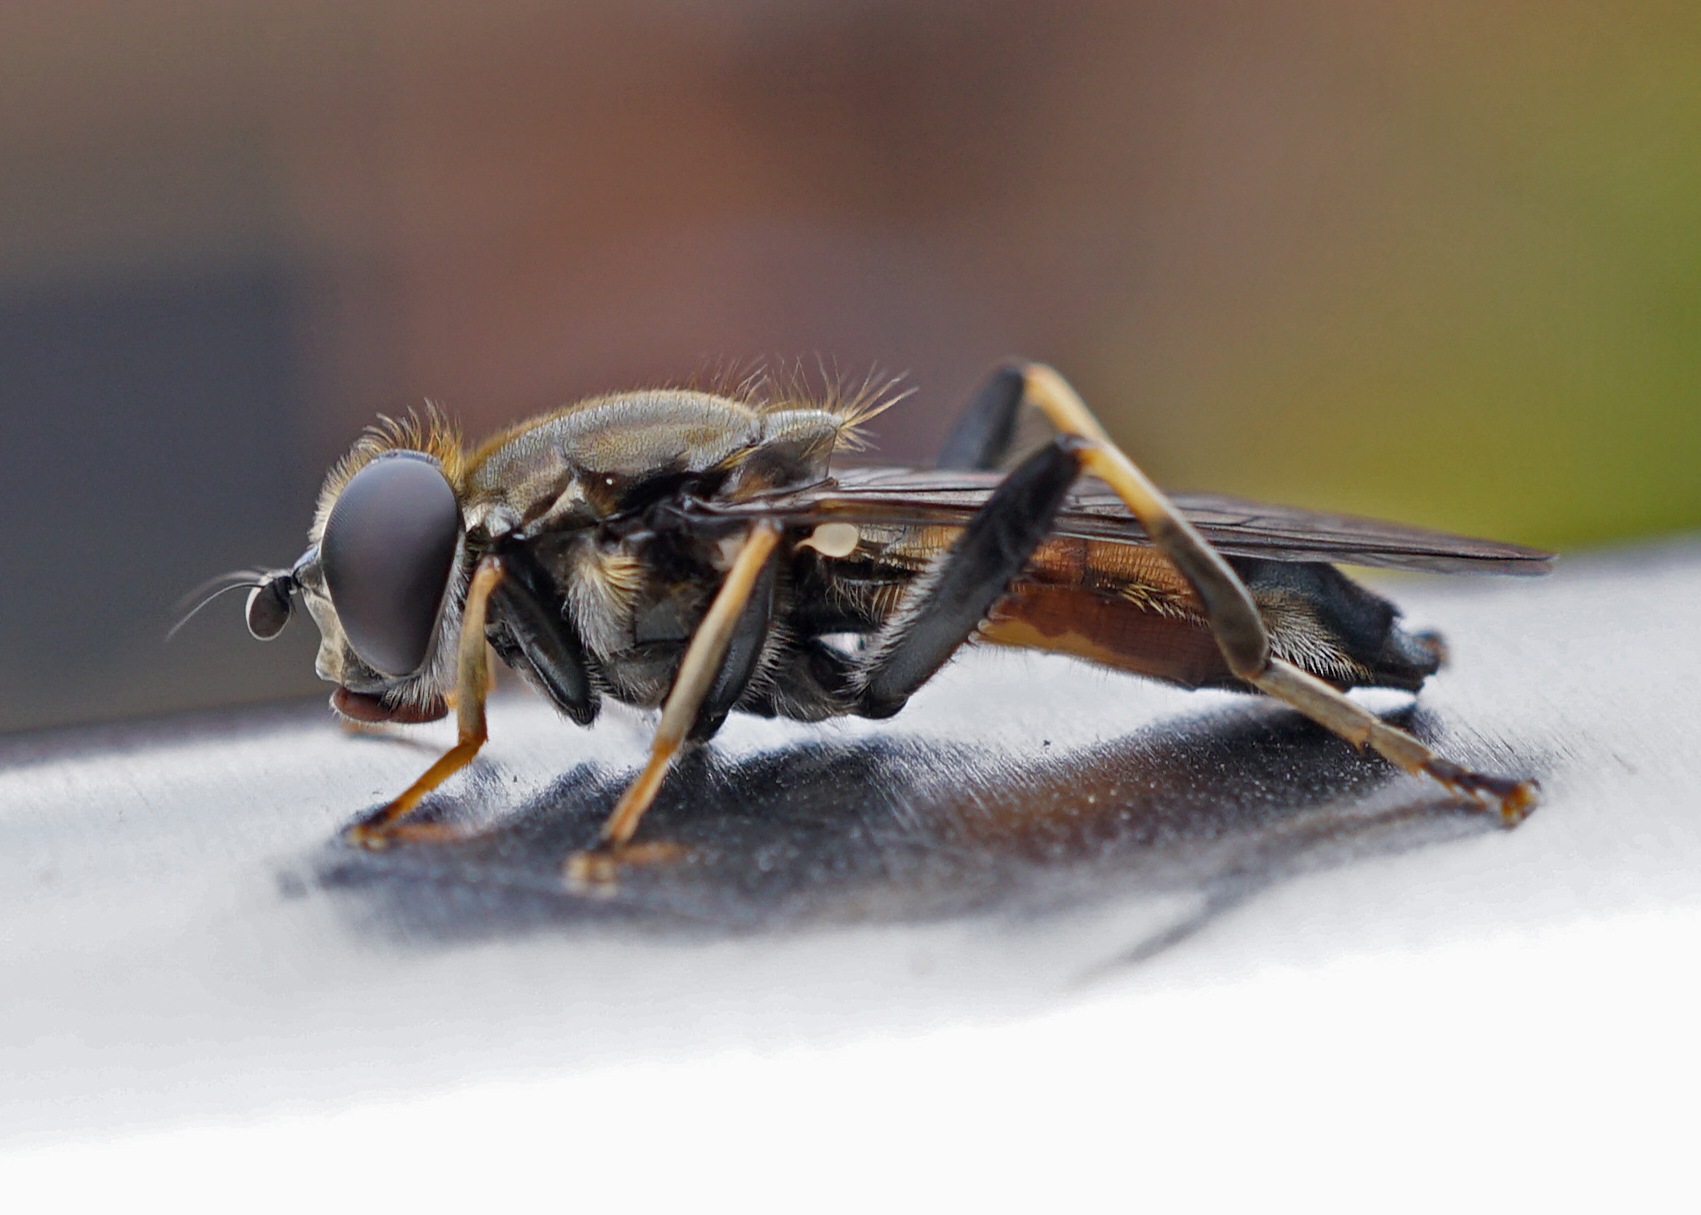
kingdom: Animalia
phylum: Arthropoda
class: Insecta
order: Diptera
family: Syrphidae
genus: Xylota
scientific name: Xylota segnis
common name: Brown-toed forest fly
